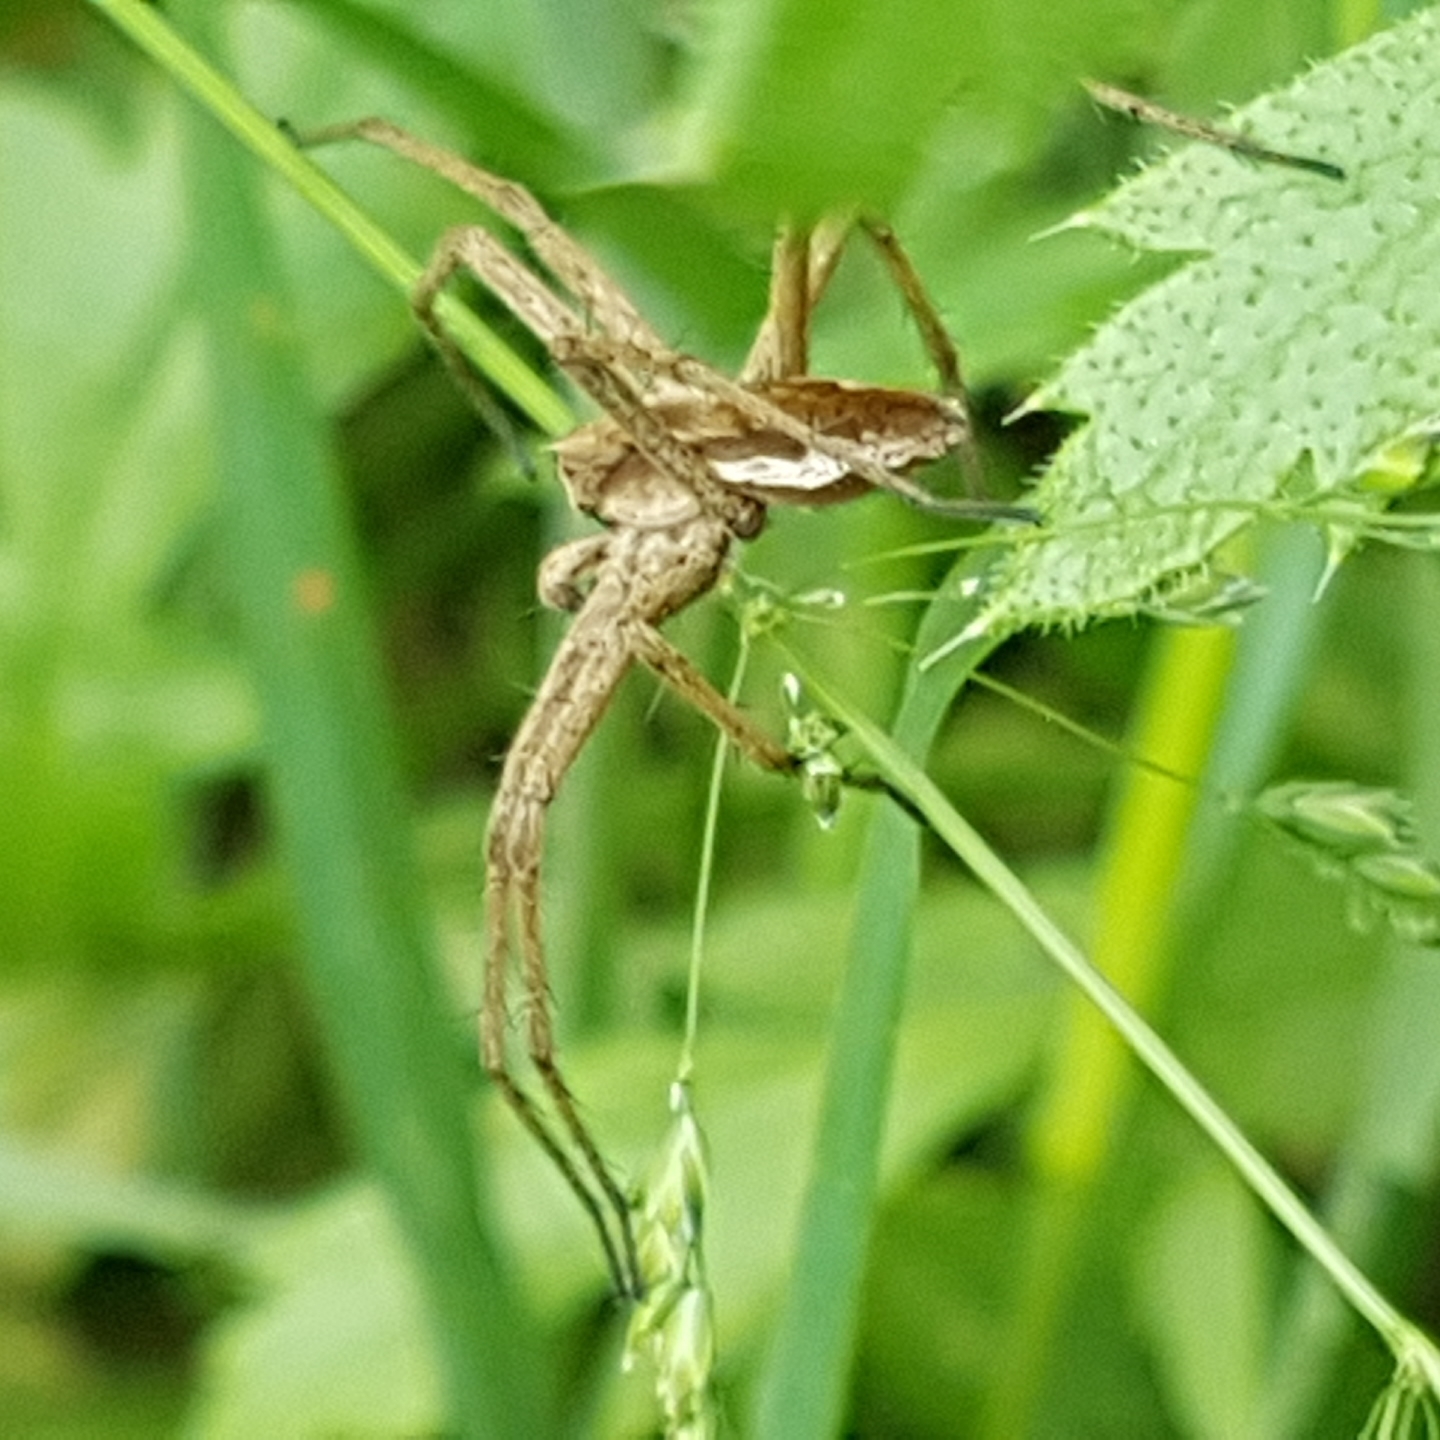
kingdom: Animalia
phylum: Arthropoda
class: Arachnida
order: Araneae
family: Pisauridae
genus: Pisaura
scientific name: Pisaura
